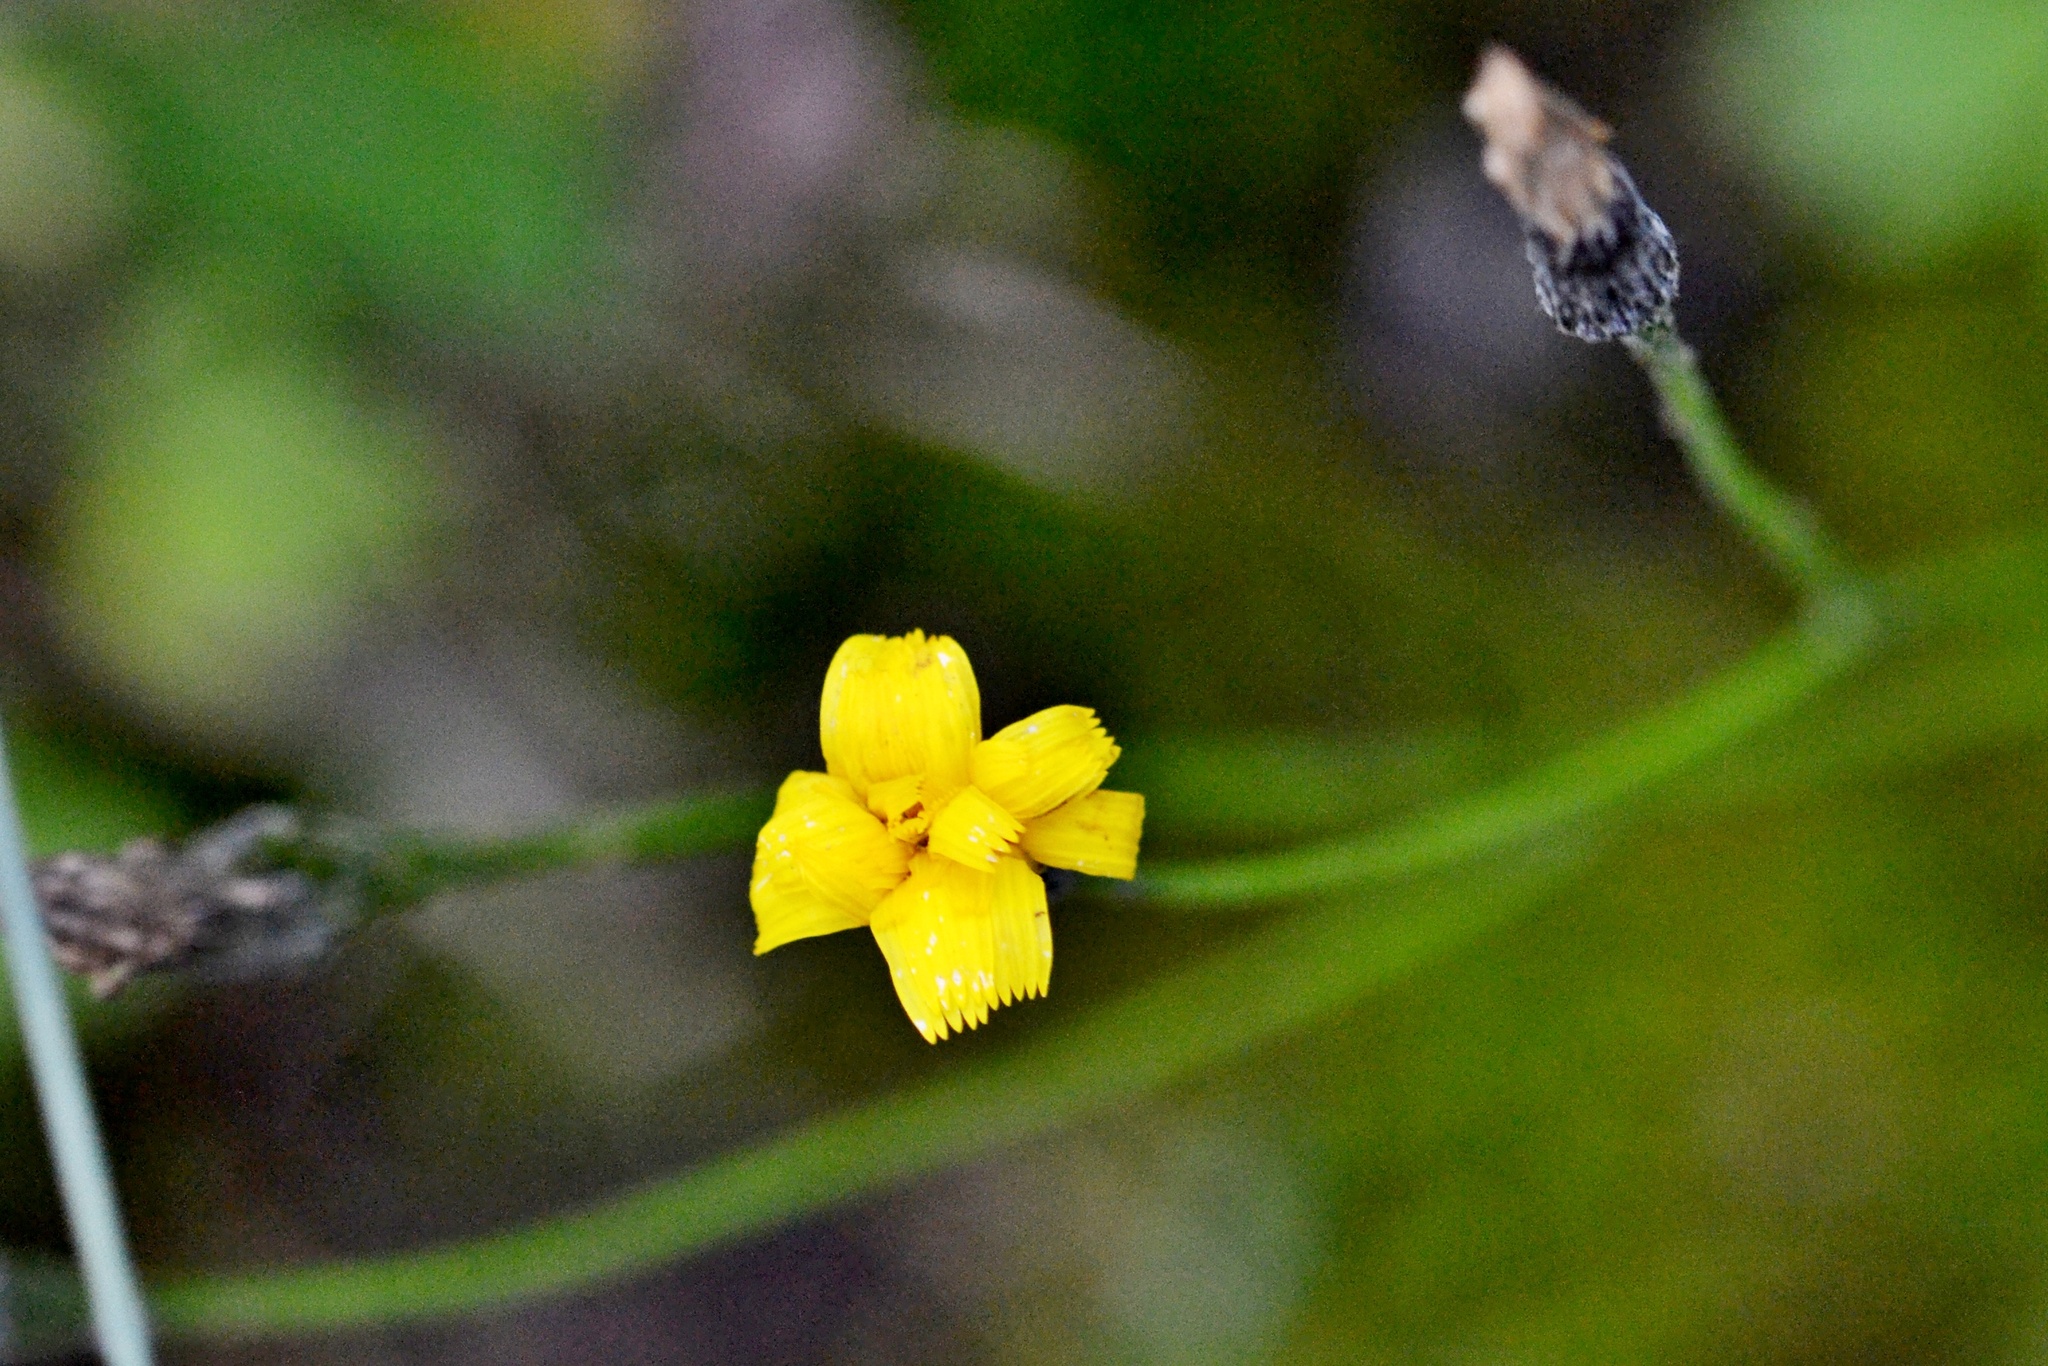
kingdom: Plantae
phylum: Tracheophyta
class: Magnoliopsida
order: Asterales
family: Asteraceae
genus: Scorzoneroides
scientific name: Scorzoneroides autumnalis
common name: Autumn hawkbit
